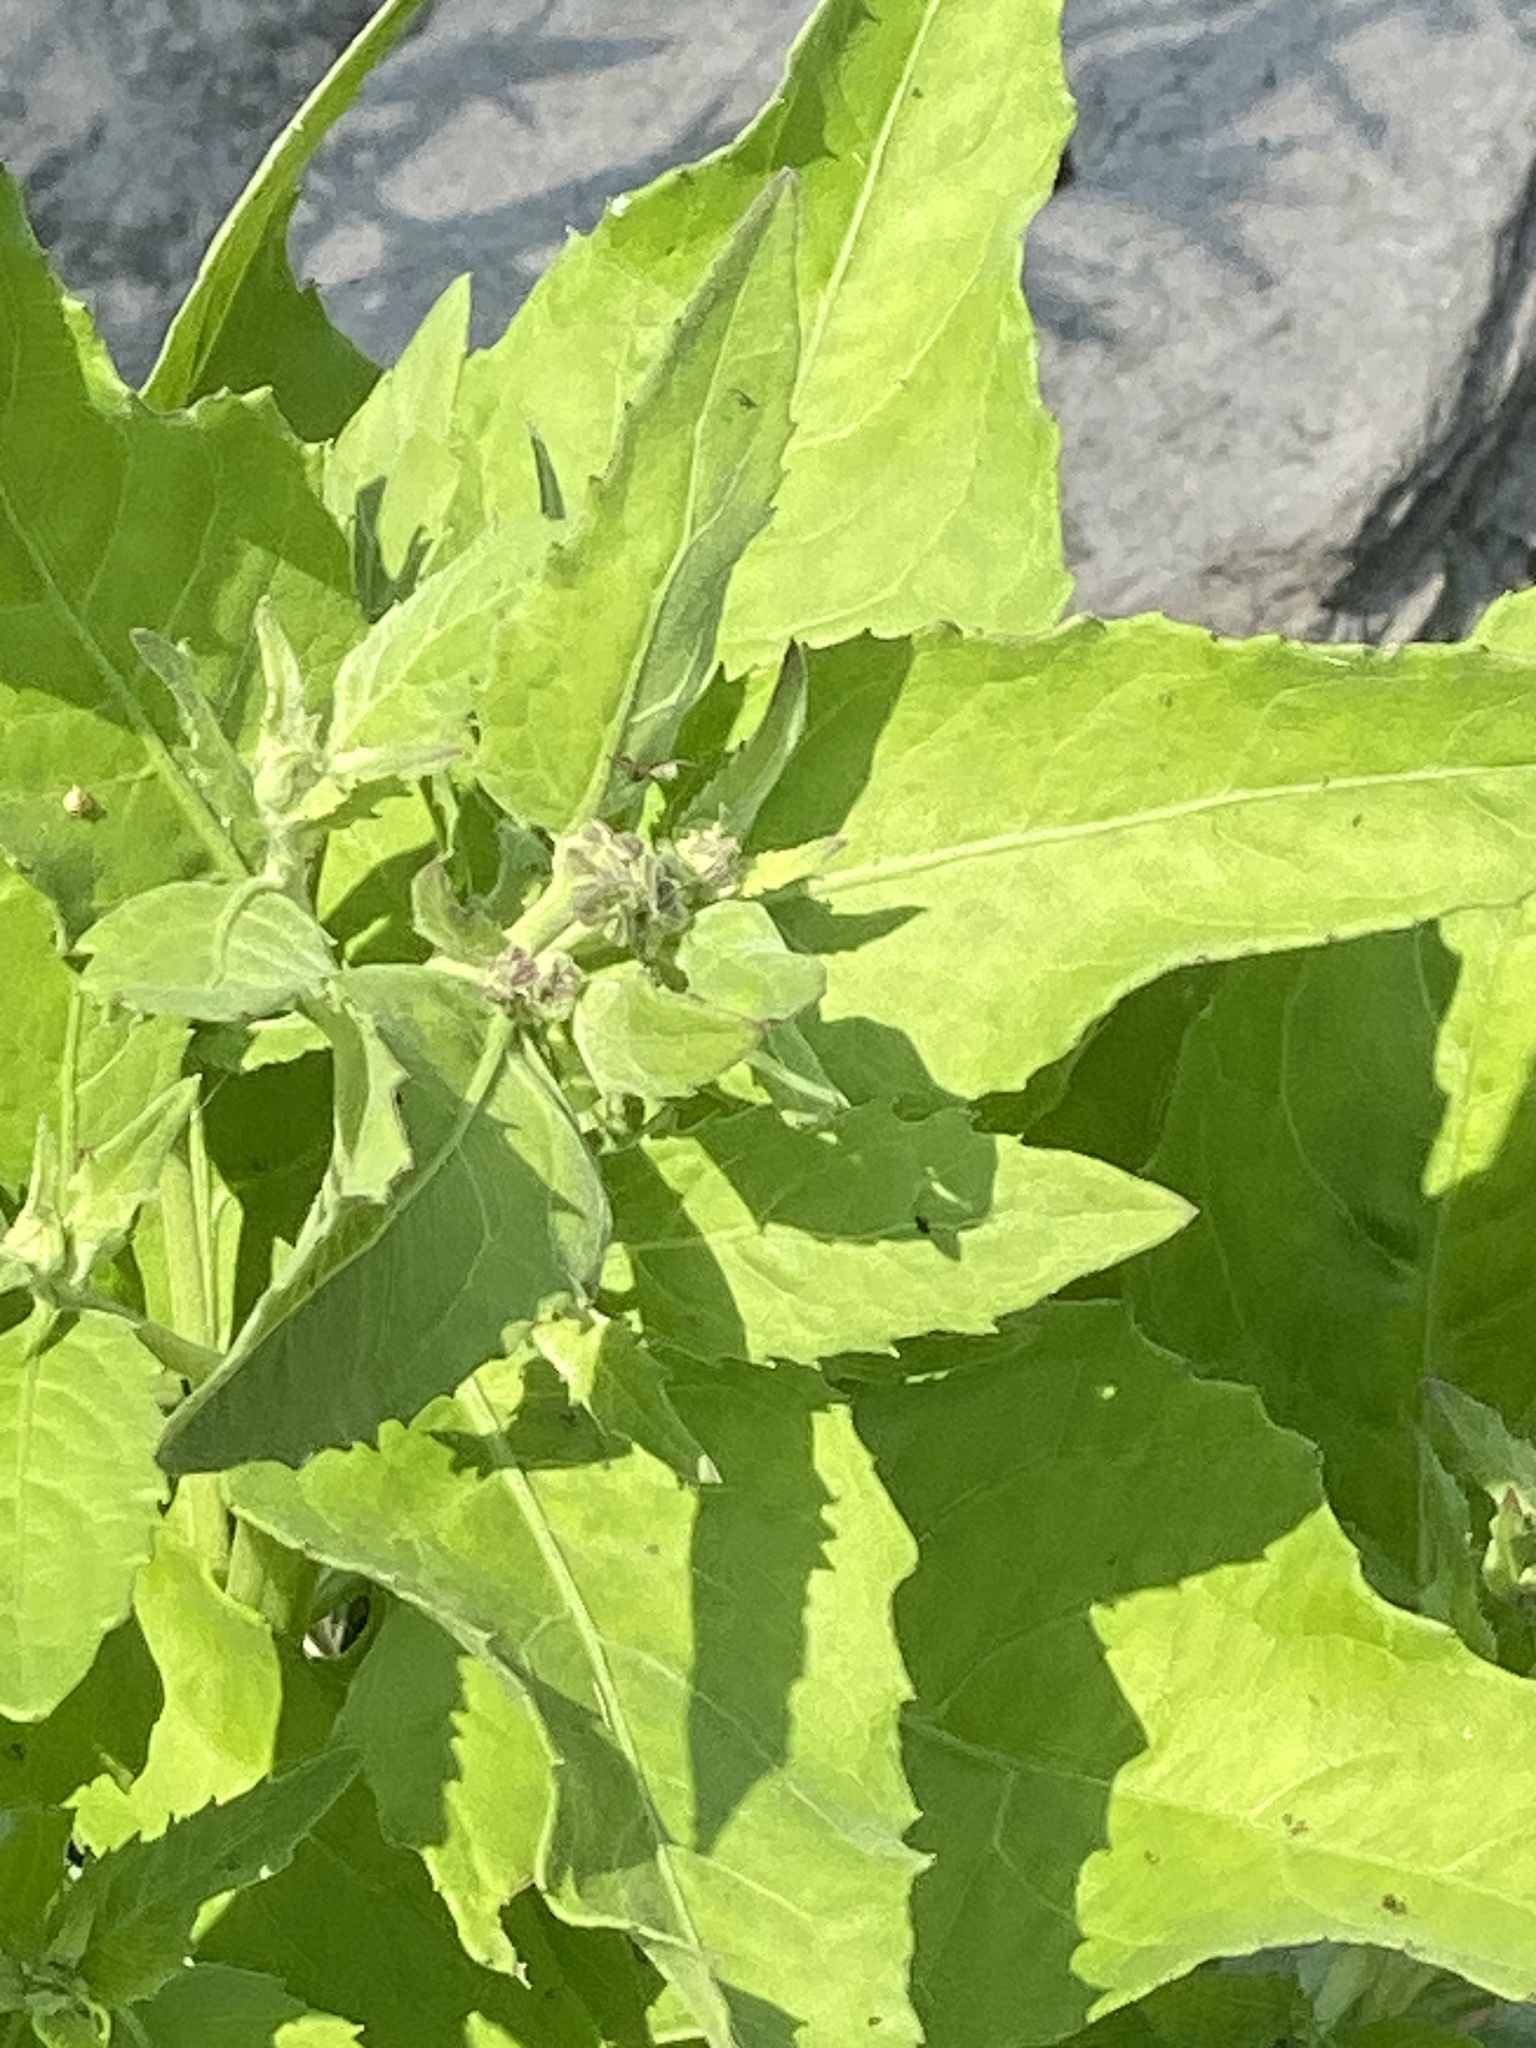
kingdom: Plantae
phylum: Tracheophyta
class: Magnoliopsida
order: Asterales
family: Asteraceae
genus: Pluchea
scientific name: Pluchea odorata
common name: Saltmarsh fleabane
